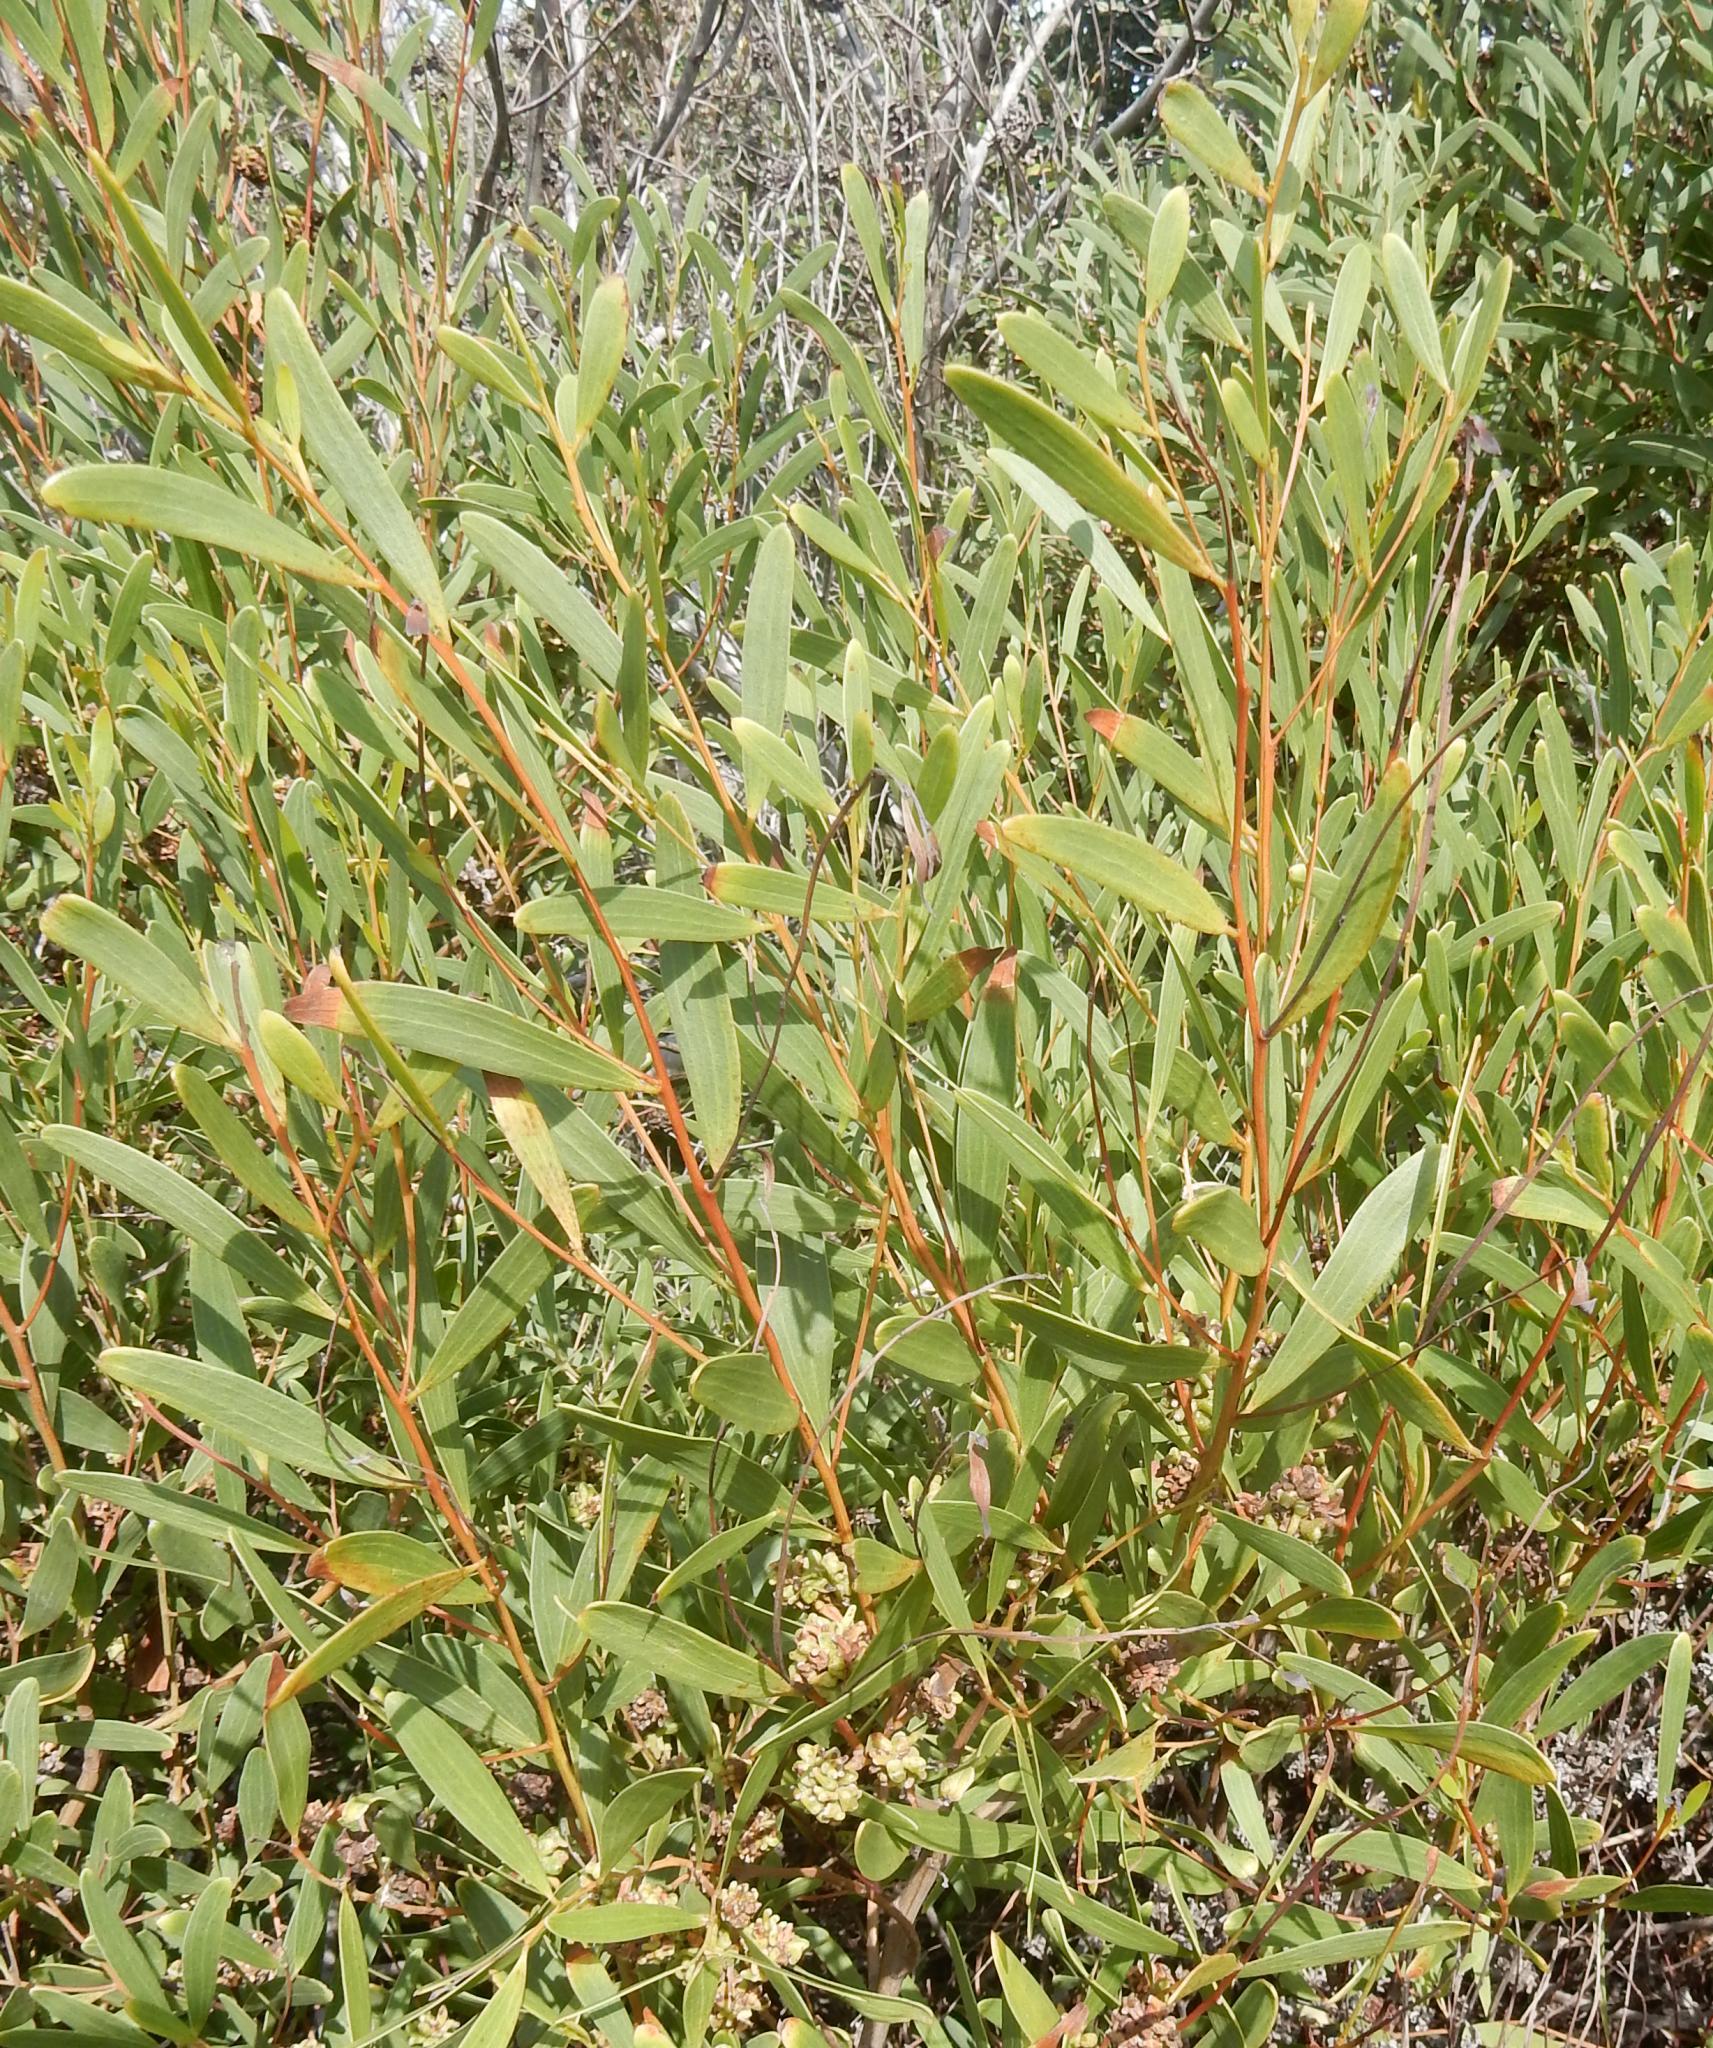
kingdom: Plantae
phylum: Tracheophyta
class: Magnoliopsida
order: Fabales
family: Fabaceae
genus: Acacia
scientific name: Acacia cyclops
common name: Coastal wattle
